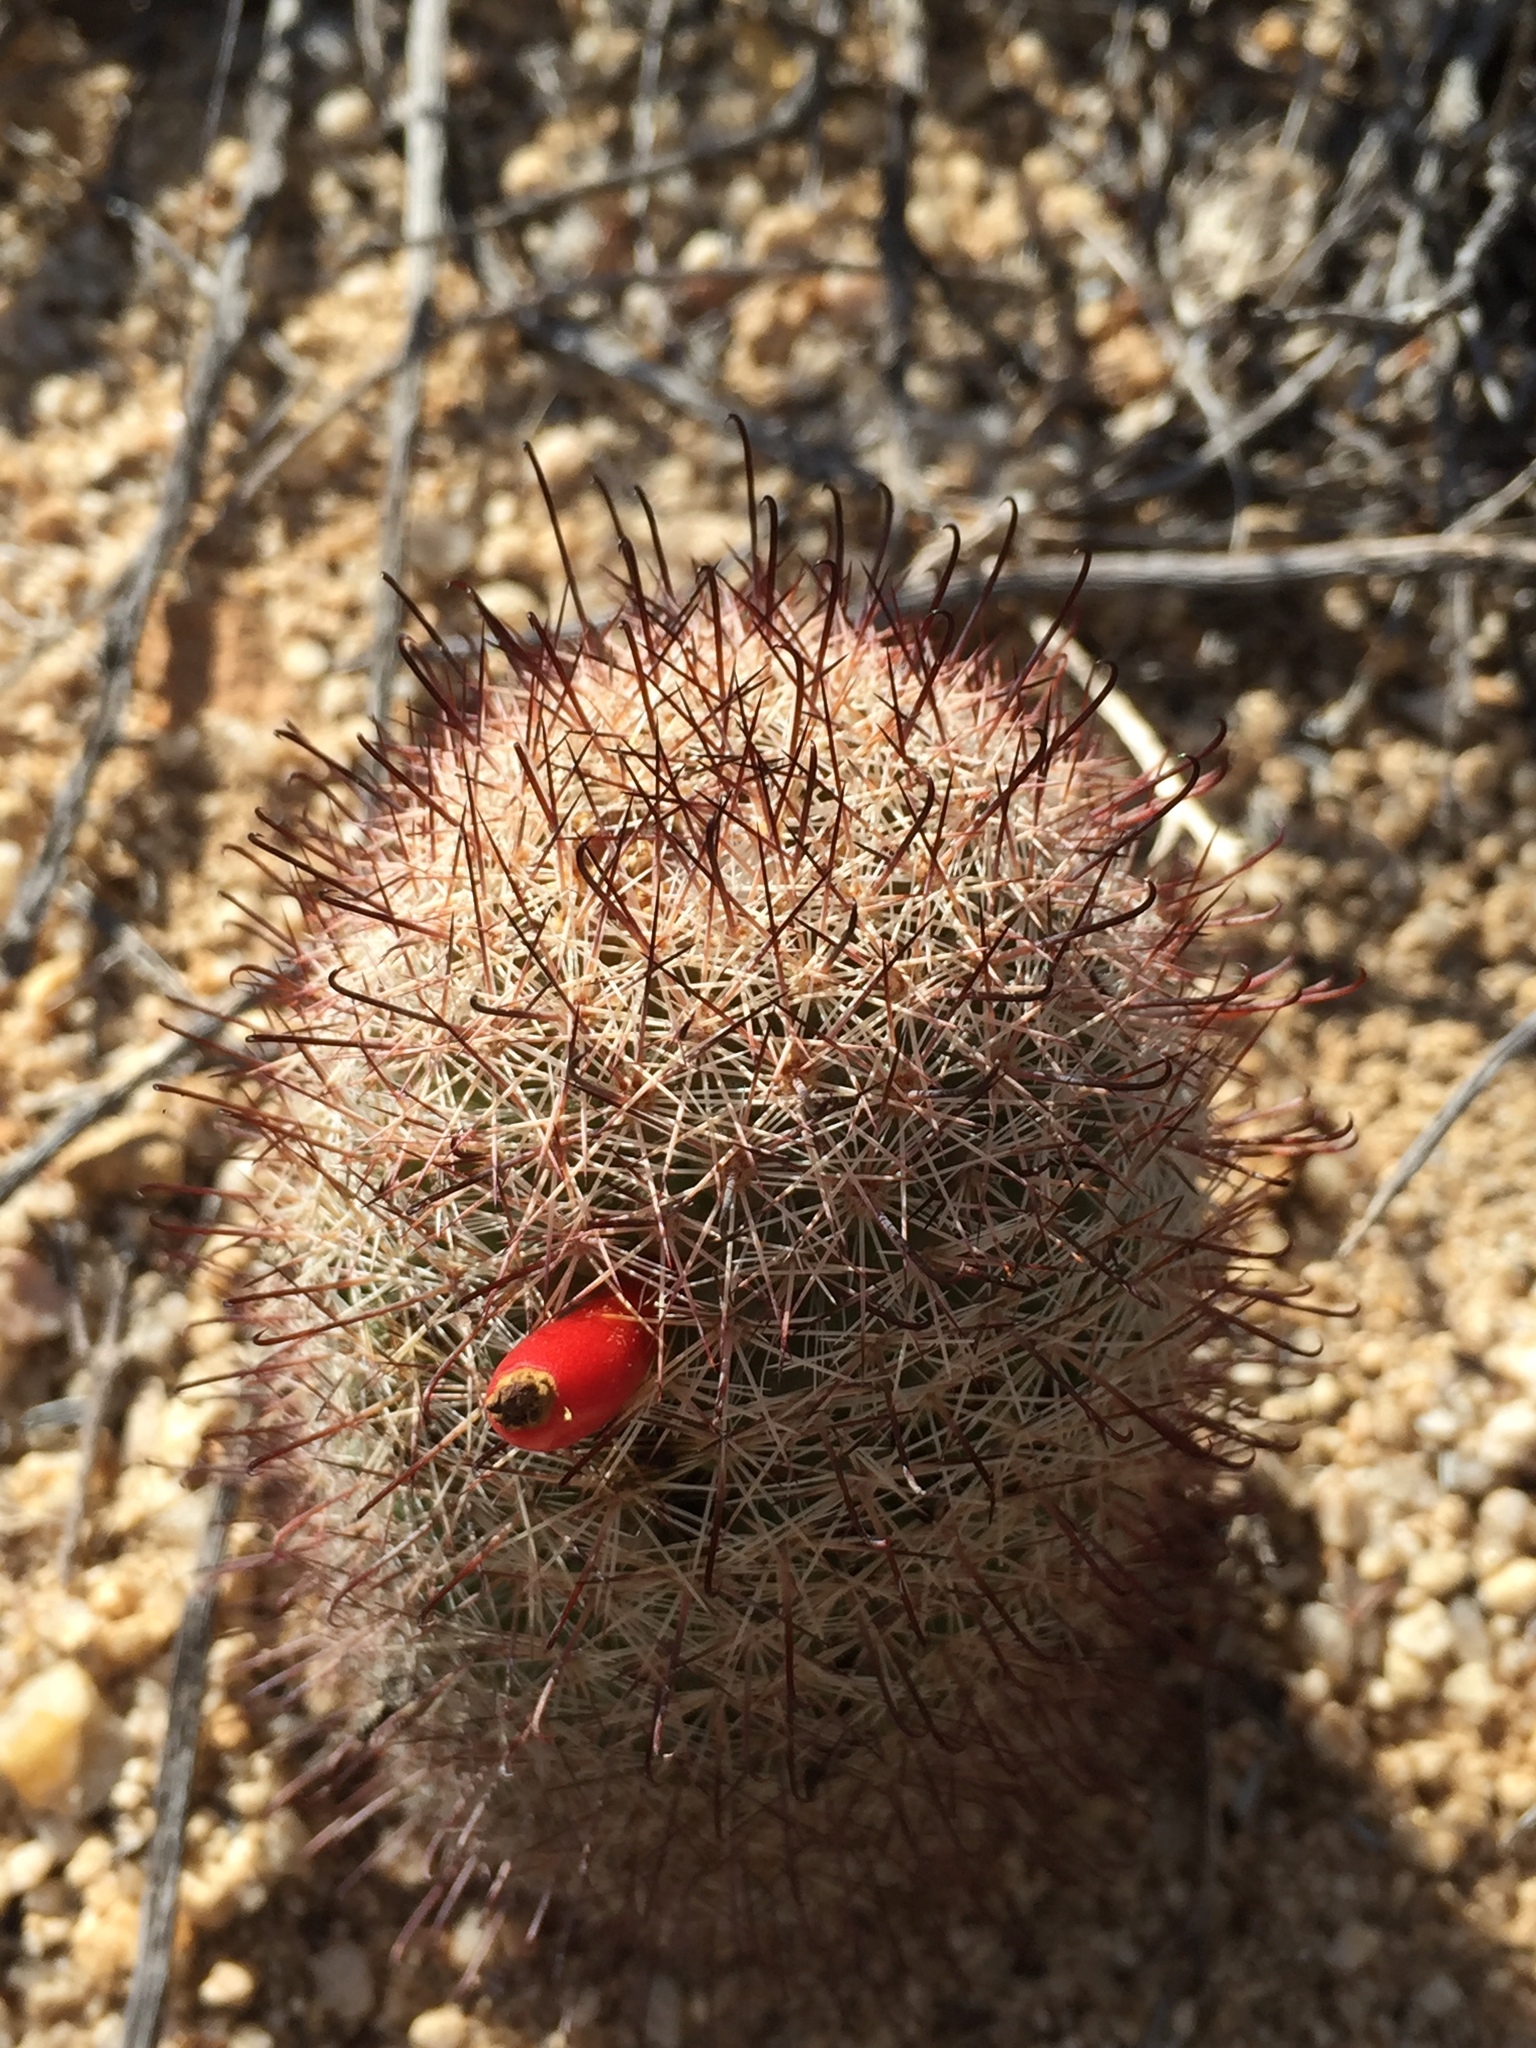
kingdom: Plantae
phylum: Tracheophyta
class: Magnoliopsida
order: Caryophyllales
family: Cactaceae
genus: Cochemiea
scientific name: Cochemiea dioica
